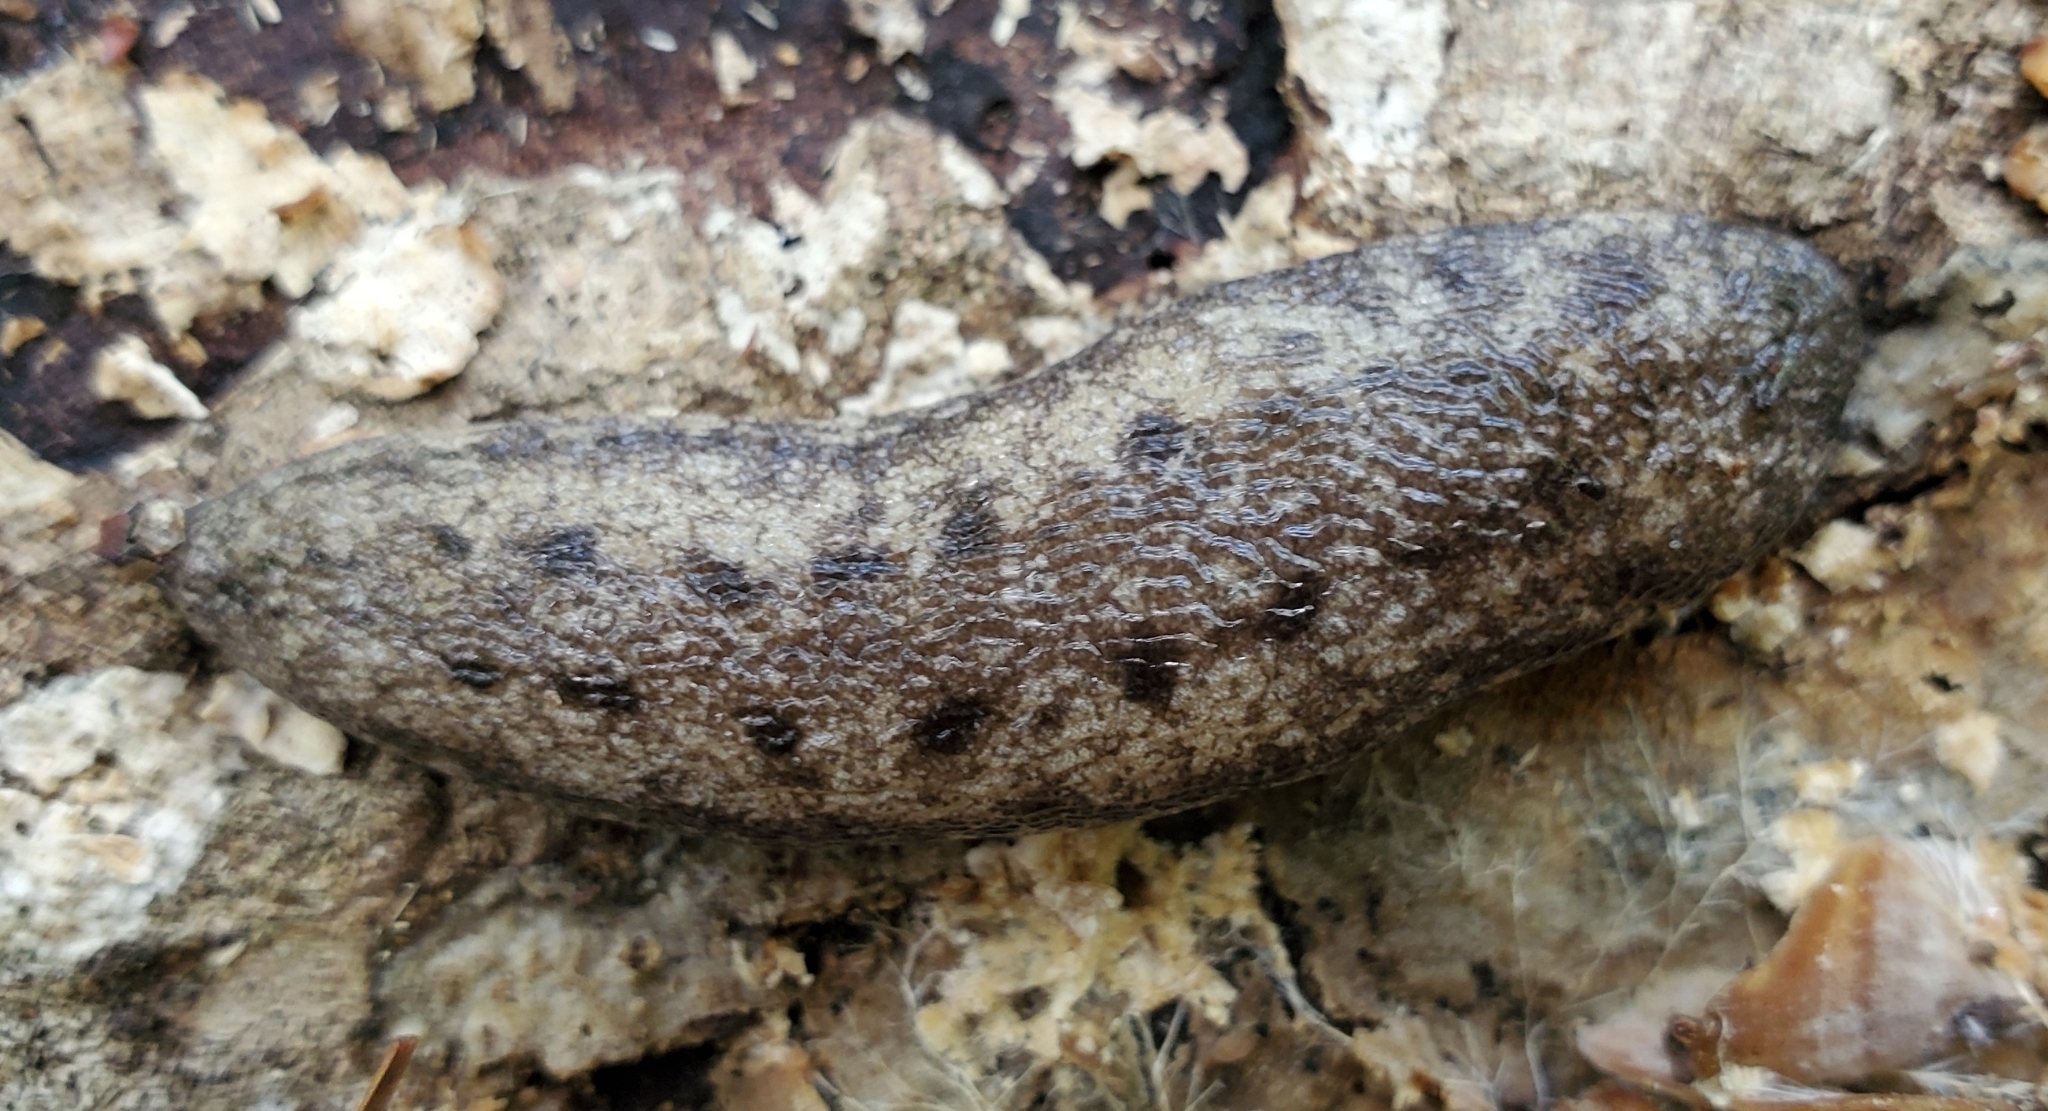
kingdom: Animalia
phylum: Mollusca
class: Gastropoda
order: Stylommatophora
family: Philomycidae
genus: Philomycus
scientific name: Philomycus carolinianus
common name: Carolina mantleslug
